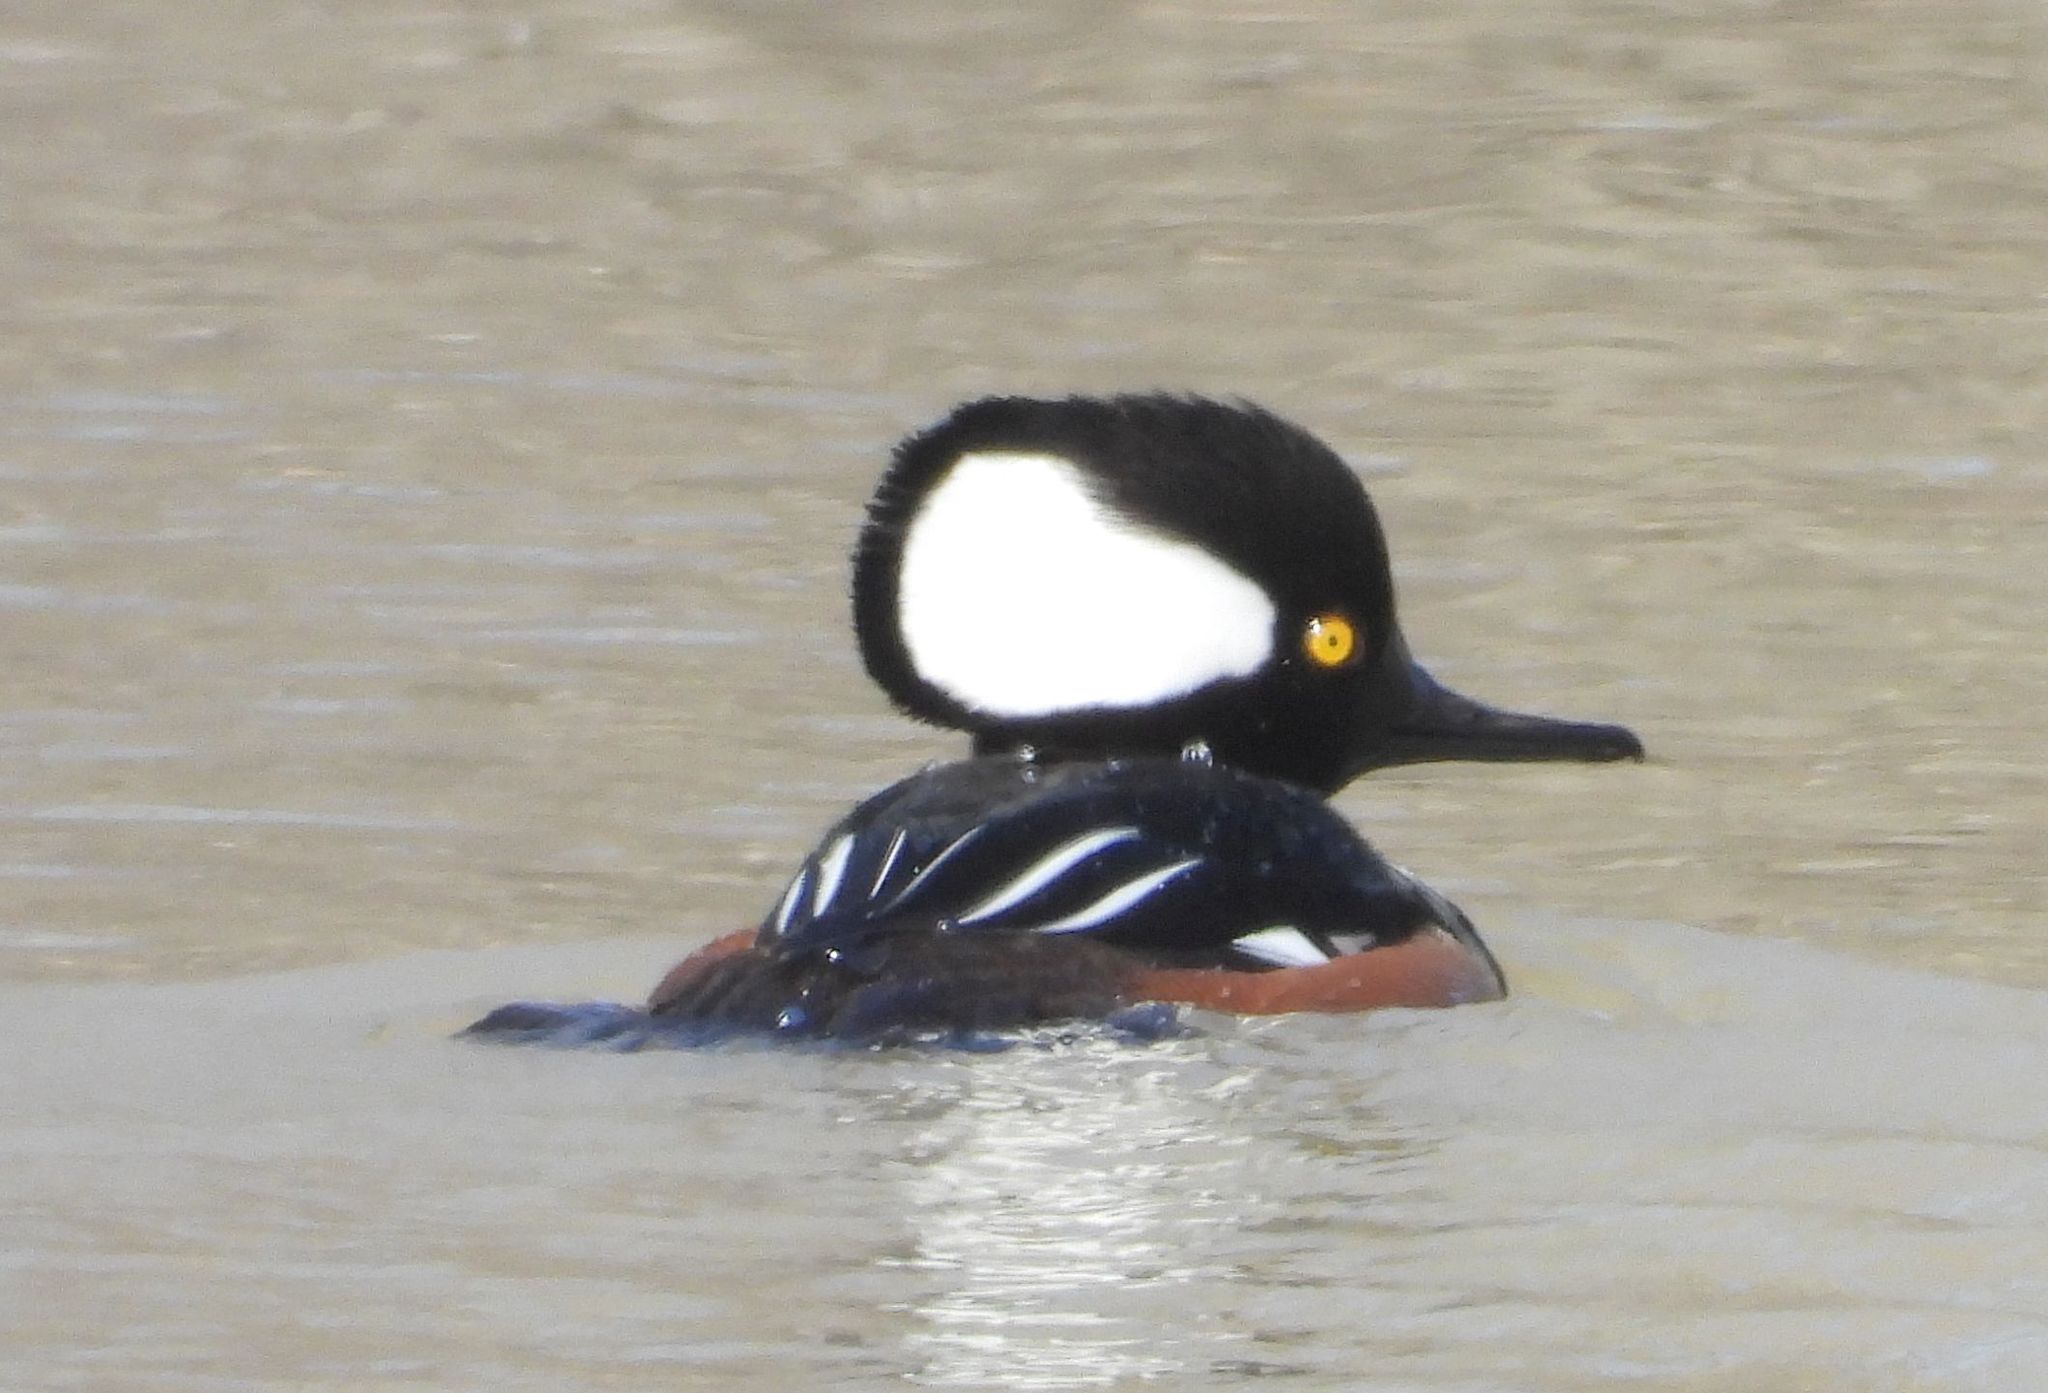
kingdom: Animalia
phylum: Chordata
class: Aves
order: Anseriformes
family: Anatidae
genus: Lophodytes
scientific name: Lophodytes cucullatus
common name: Hooded merganser
